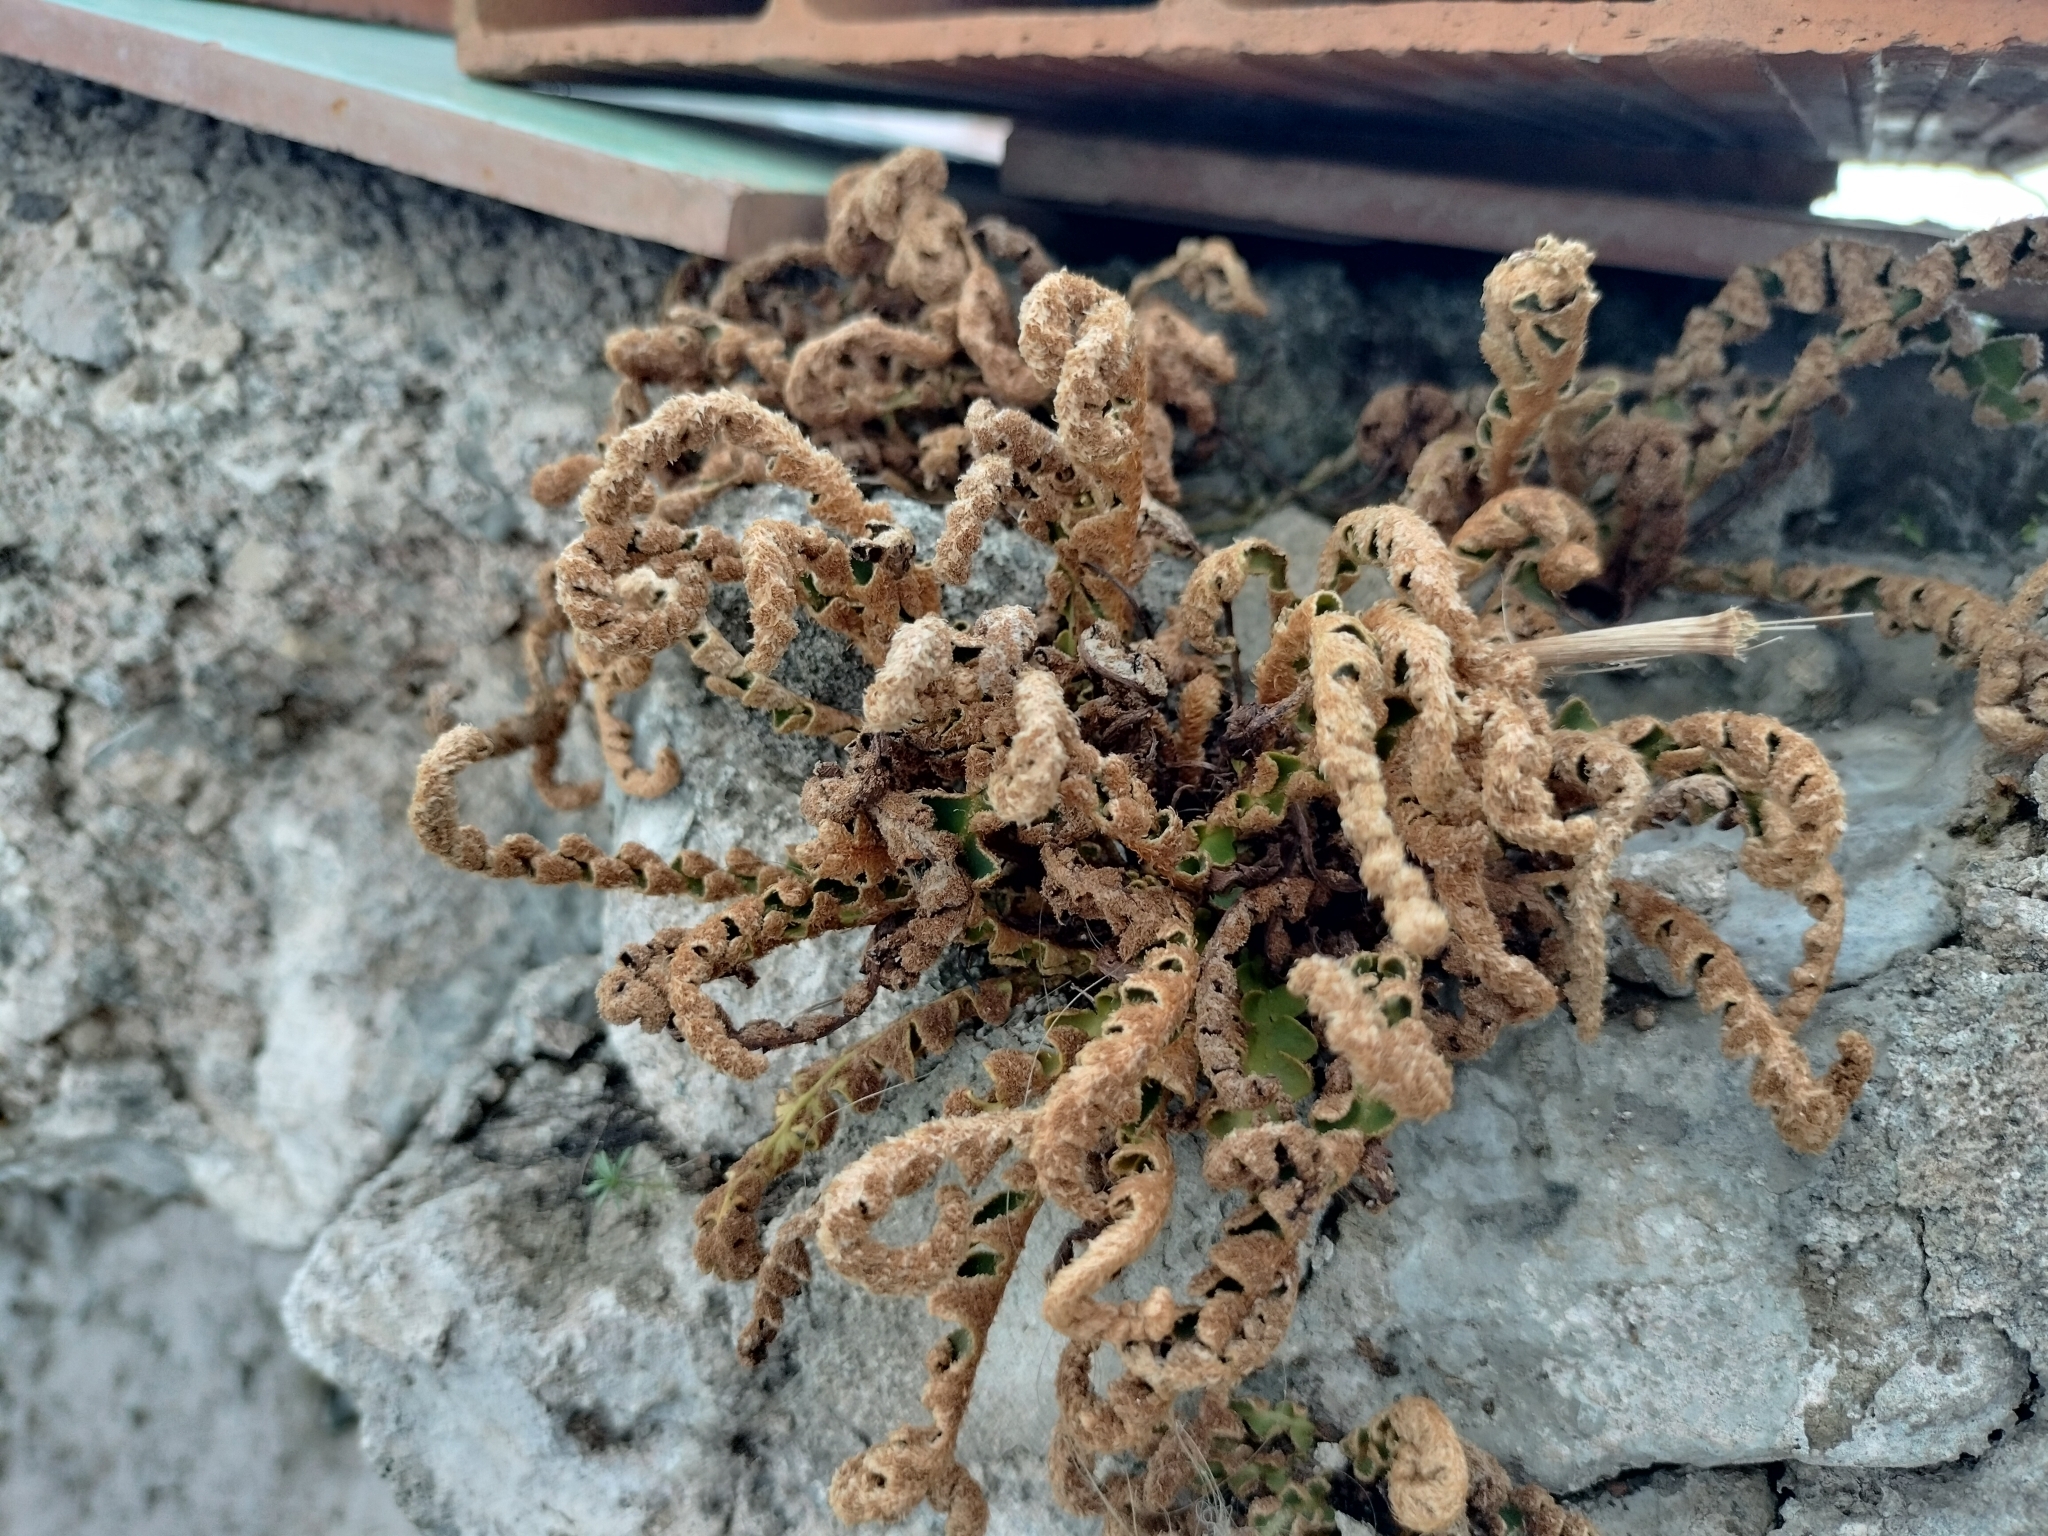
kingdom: Plantae
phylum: Tracheophyta
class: Polypodiopsida
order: Polypodiales
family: Aspleniaceae
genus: Asplenium
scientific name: Asplenium ceterach
